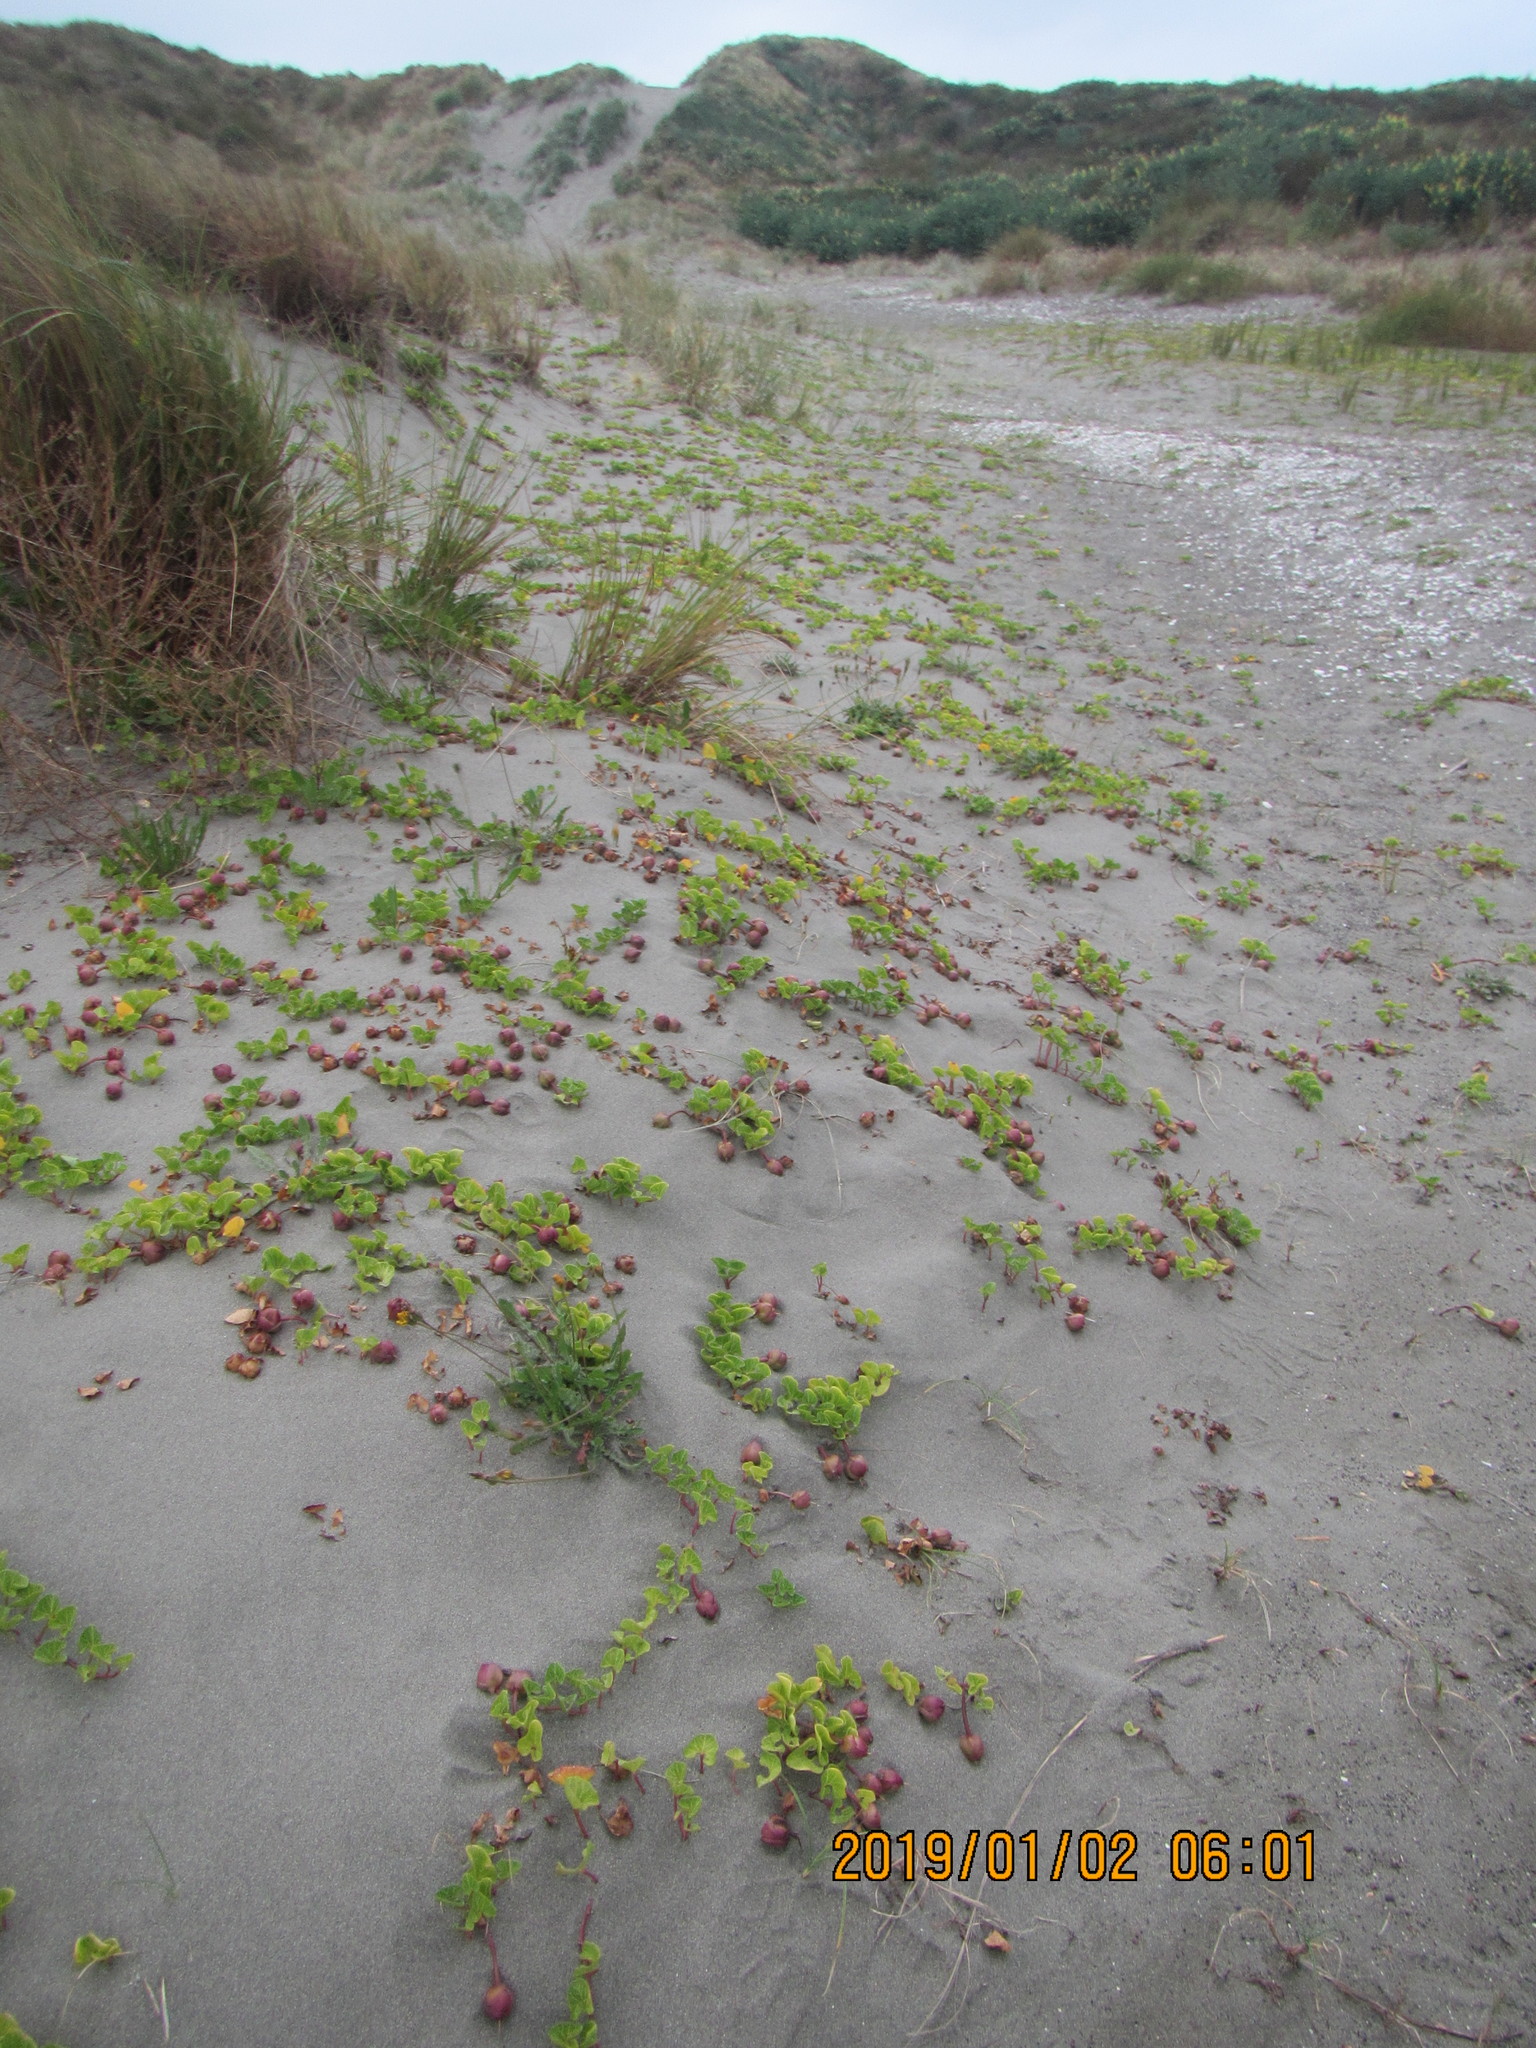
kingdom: Plantae
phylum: Tracheophyta
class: Magnoliopsida
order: Solanales
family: Convolvulaceae
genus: Calystegia
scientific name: Calystegia soldanella
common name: Sea bindweed
